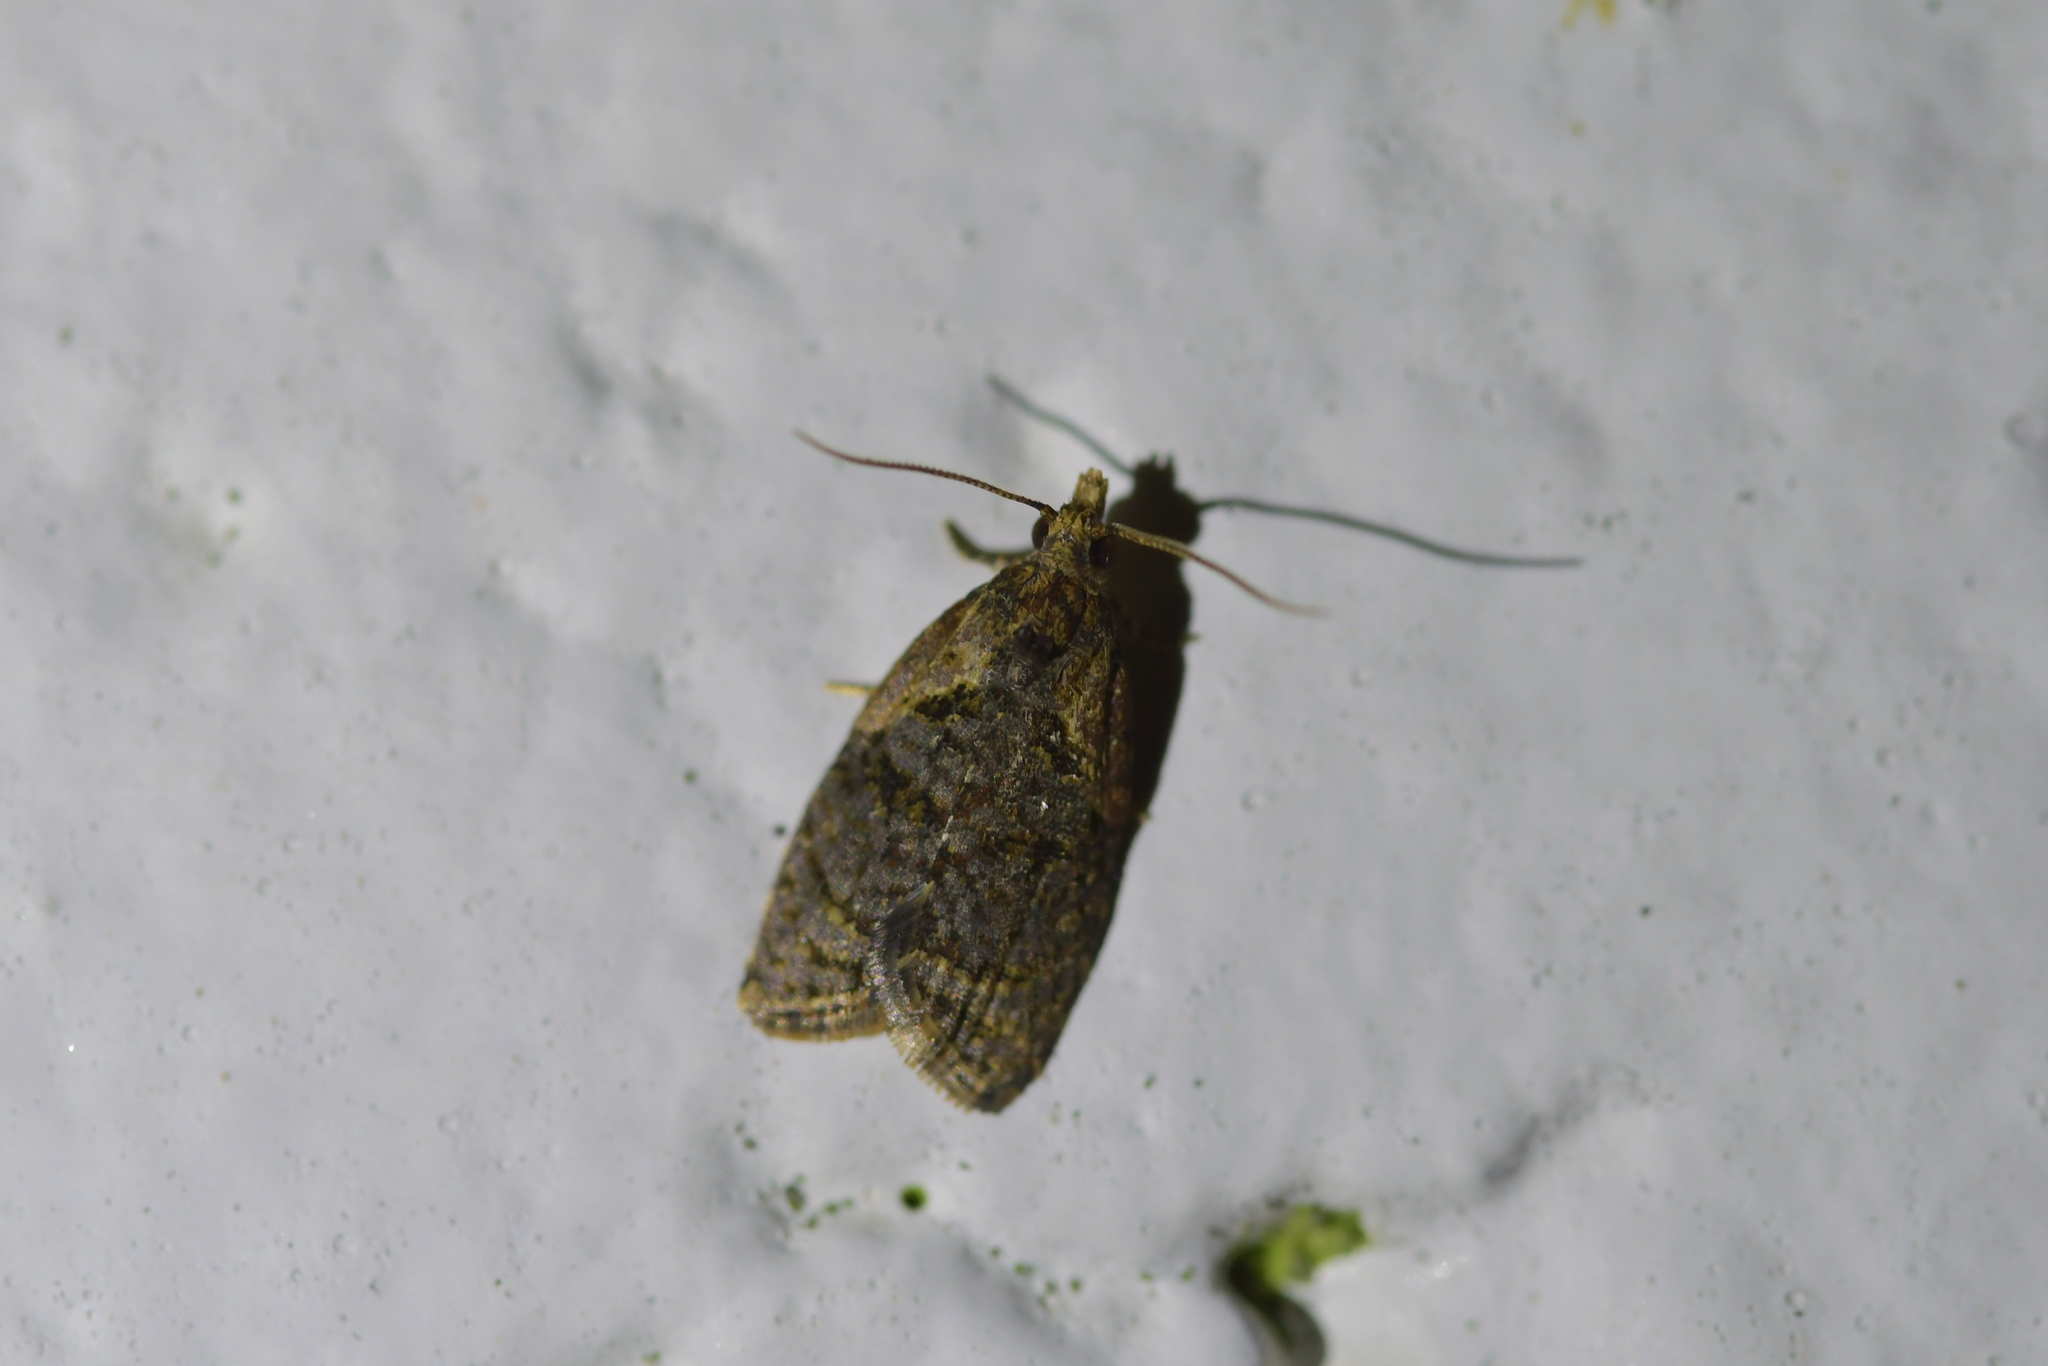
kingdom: Animalia
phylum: Arthropoda
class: Insecta
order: Lepidoptera
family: Tortricidae
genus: Capua
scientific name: Capua intractana
